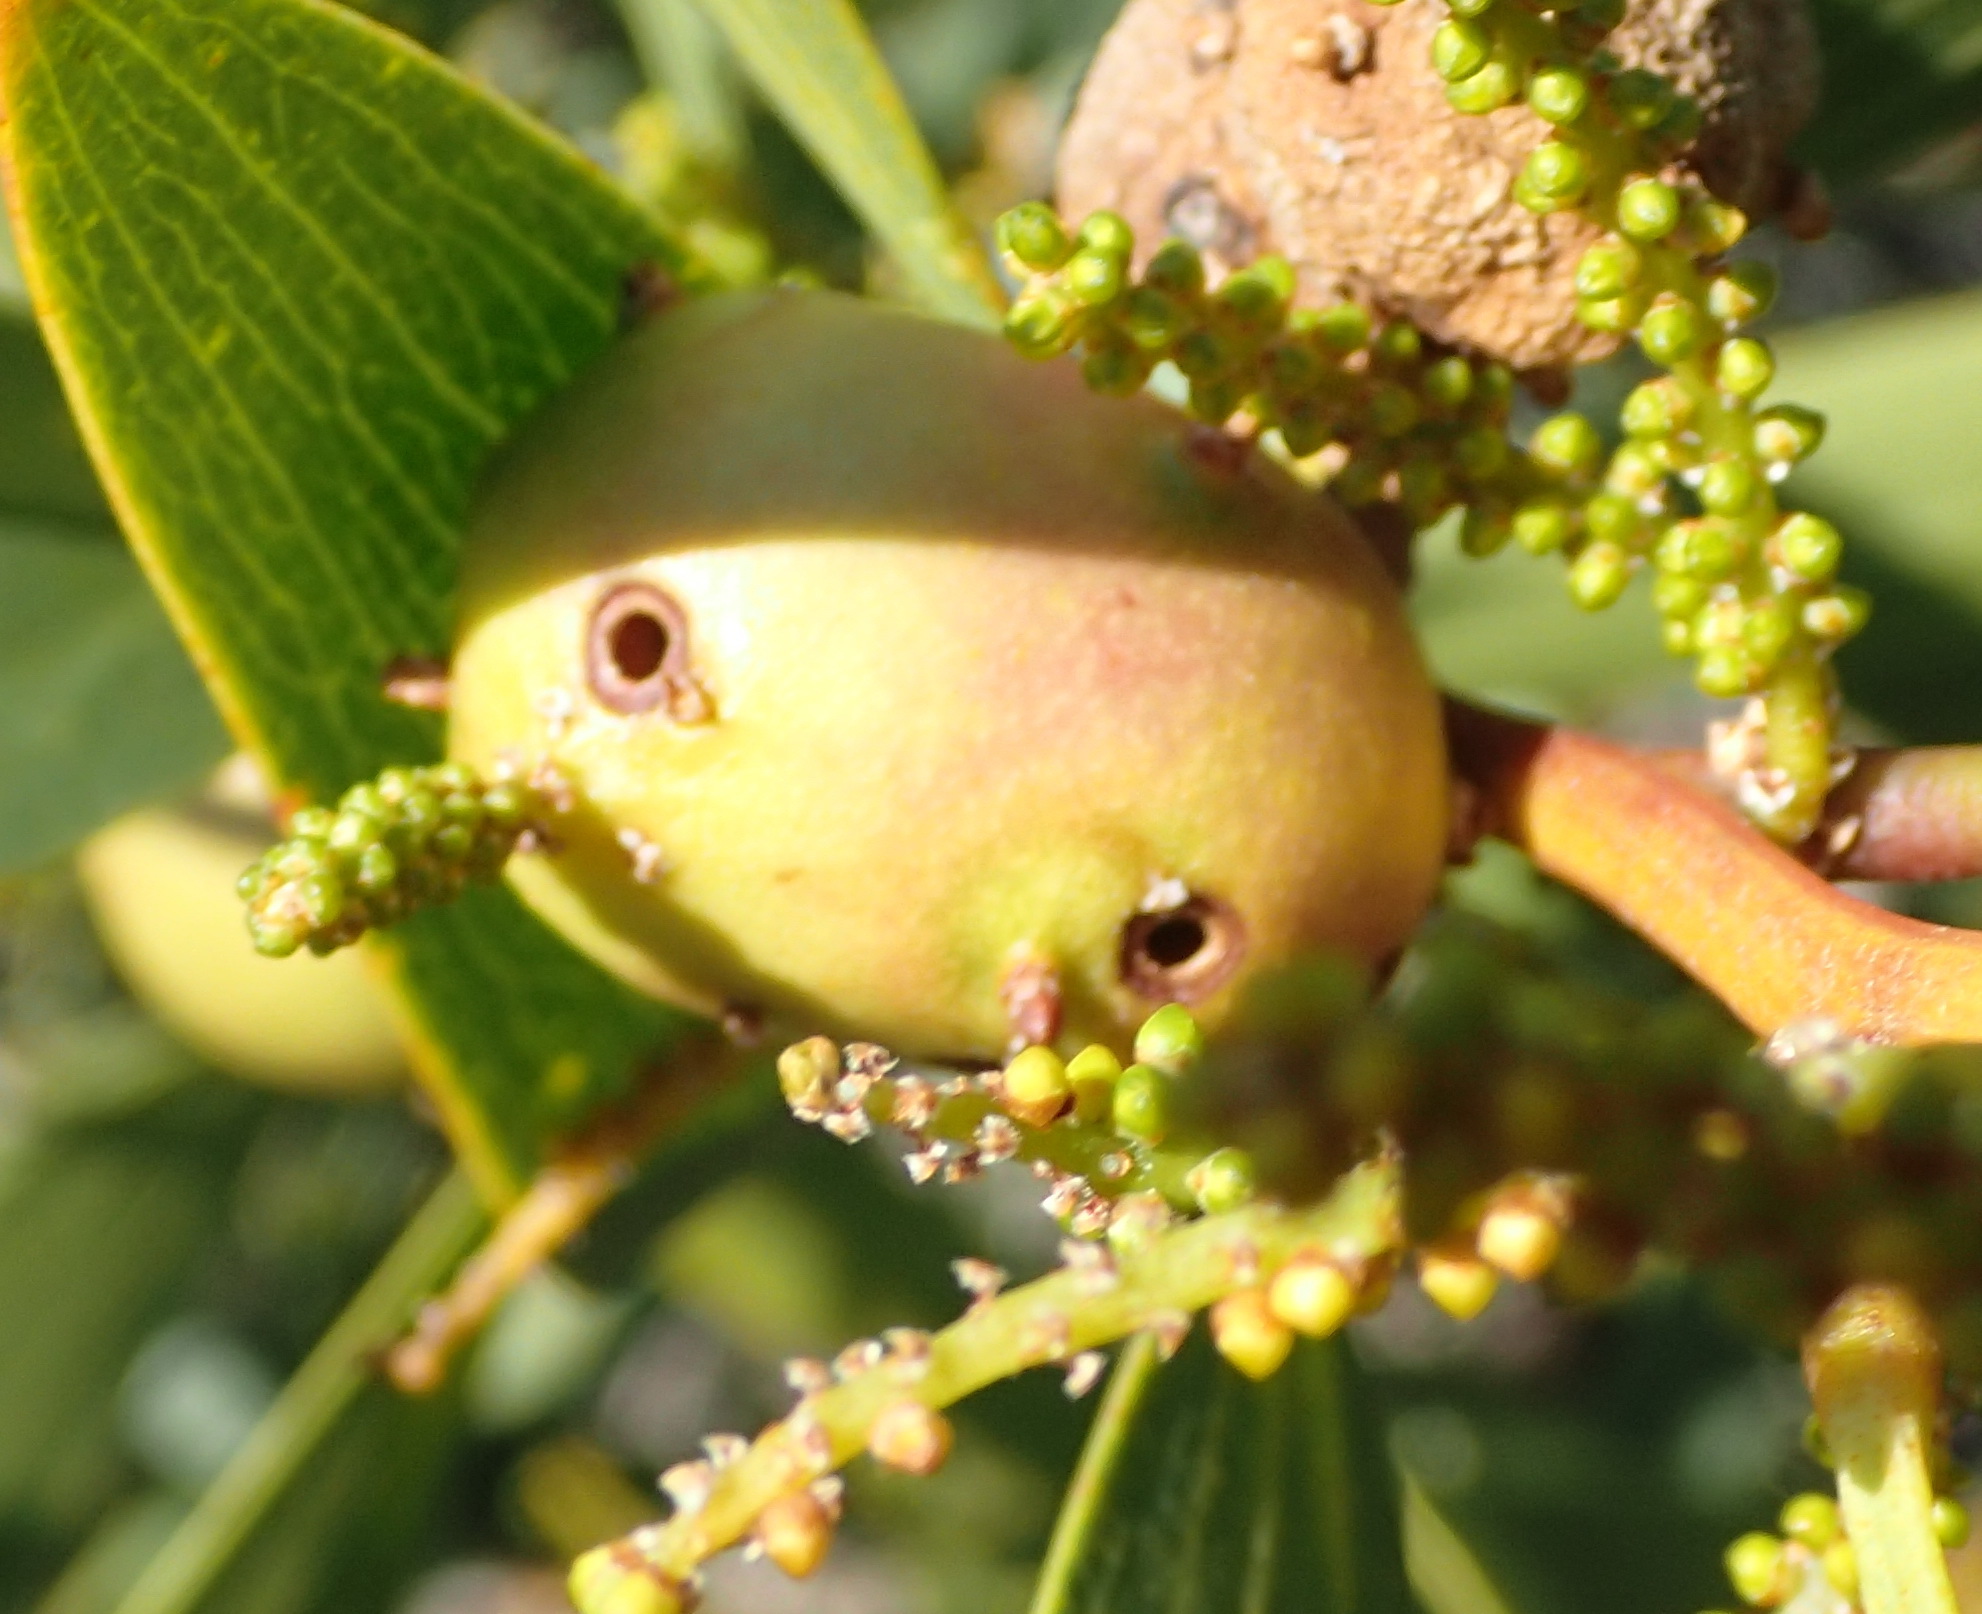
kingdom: Animalia
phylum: Arthropoda
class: Insecta
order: Hymenoptera
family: Pteromalidae
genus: Trichilogaster
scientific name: Trichilogaster acaciaelongifoliae
